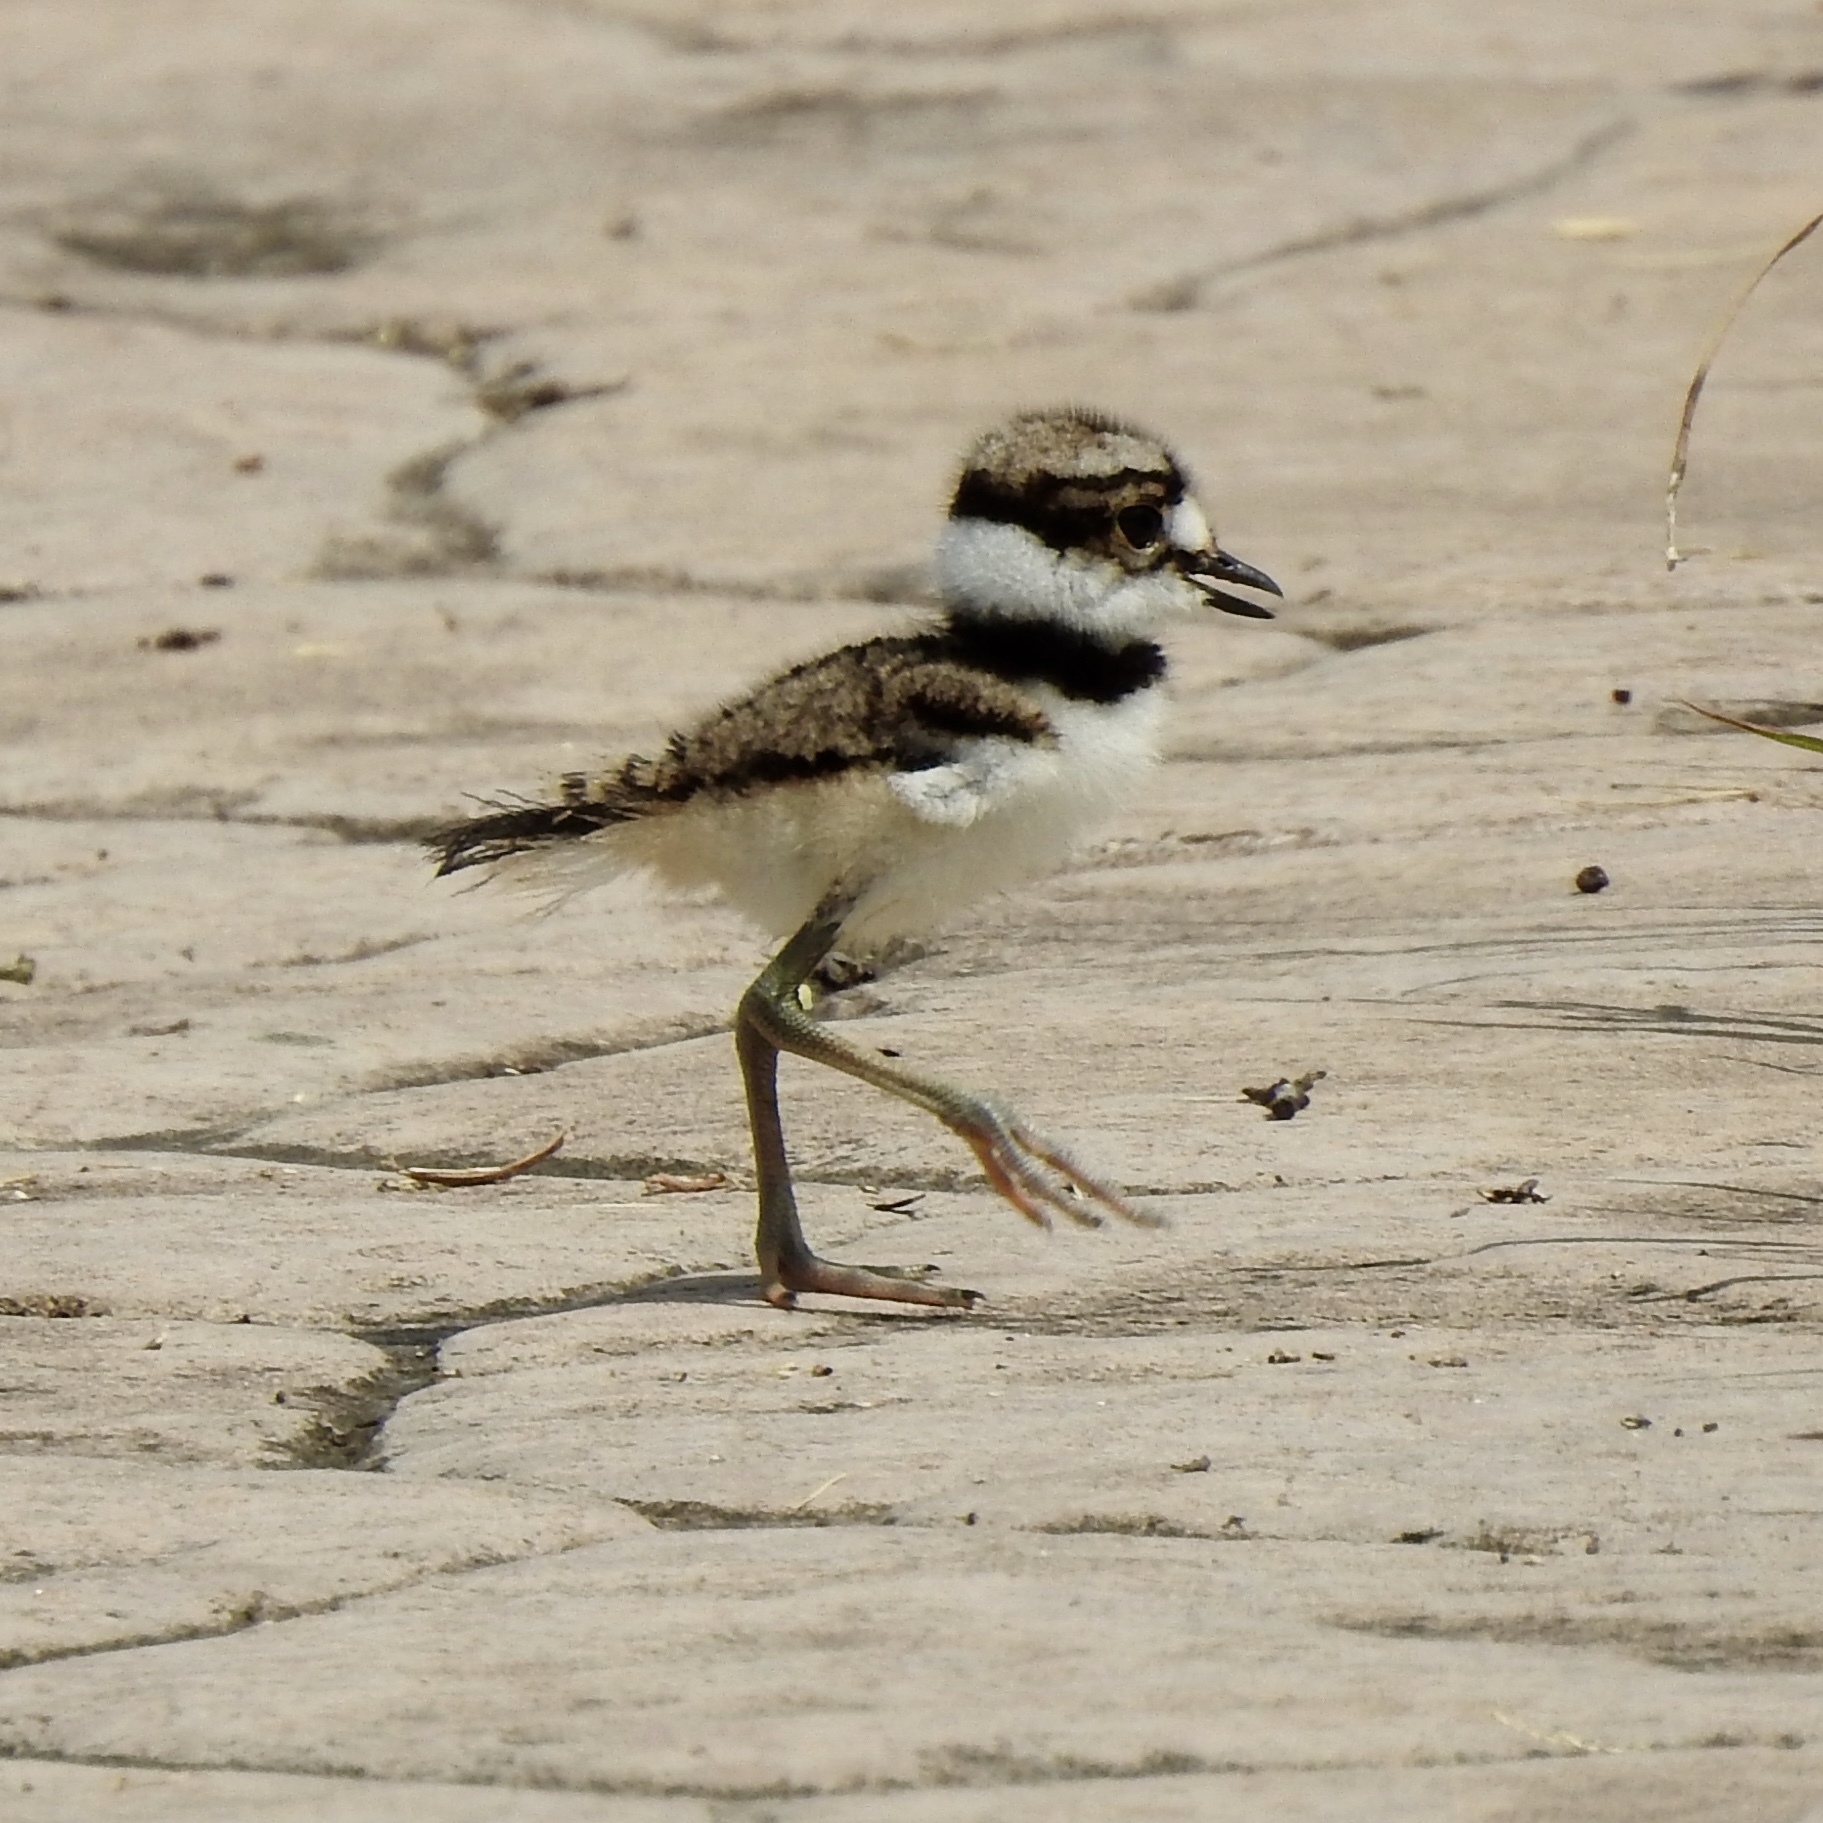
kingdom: Animalia
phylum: Chordata
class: Aves
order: Charadriiformes
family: Charadriidae
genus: Charadrius
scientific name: Charadrius vociferus
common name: Killdeer
